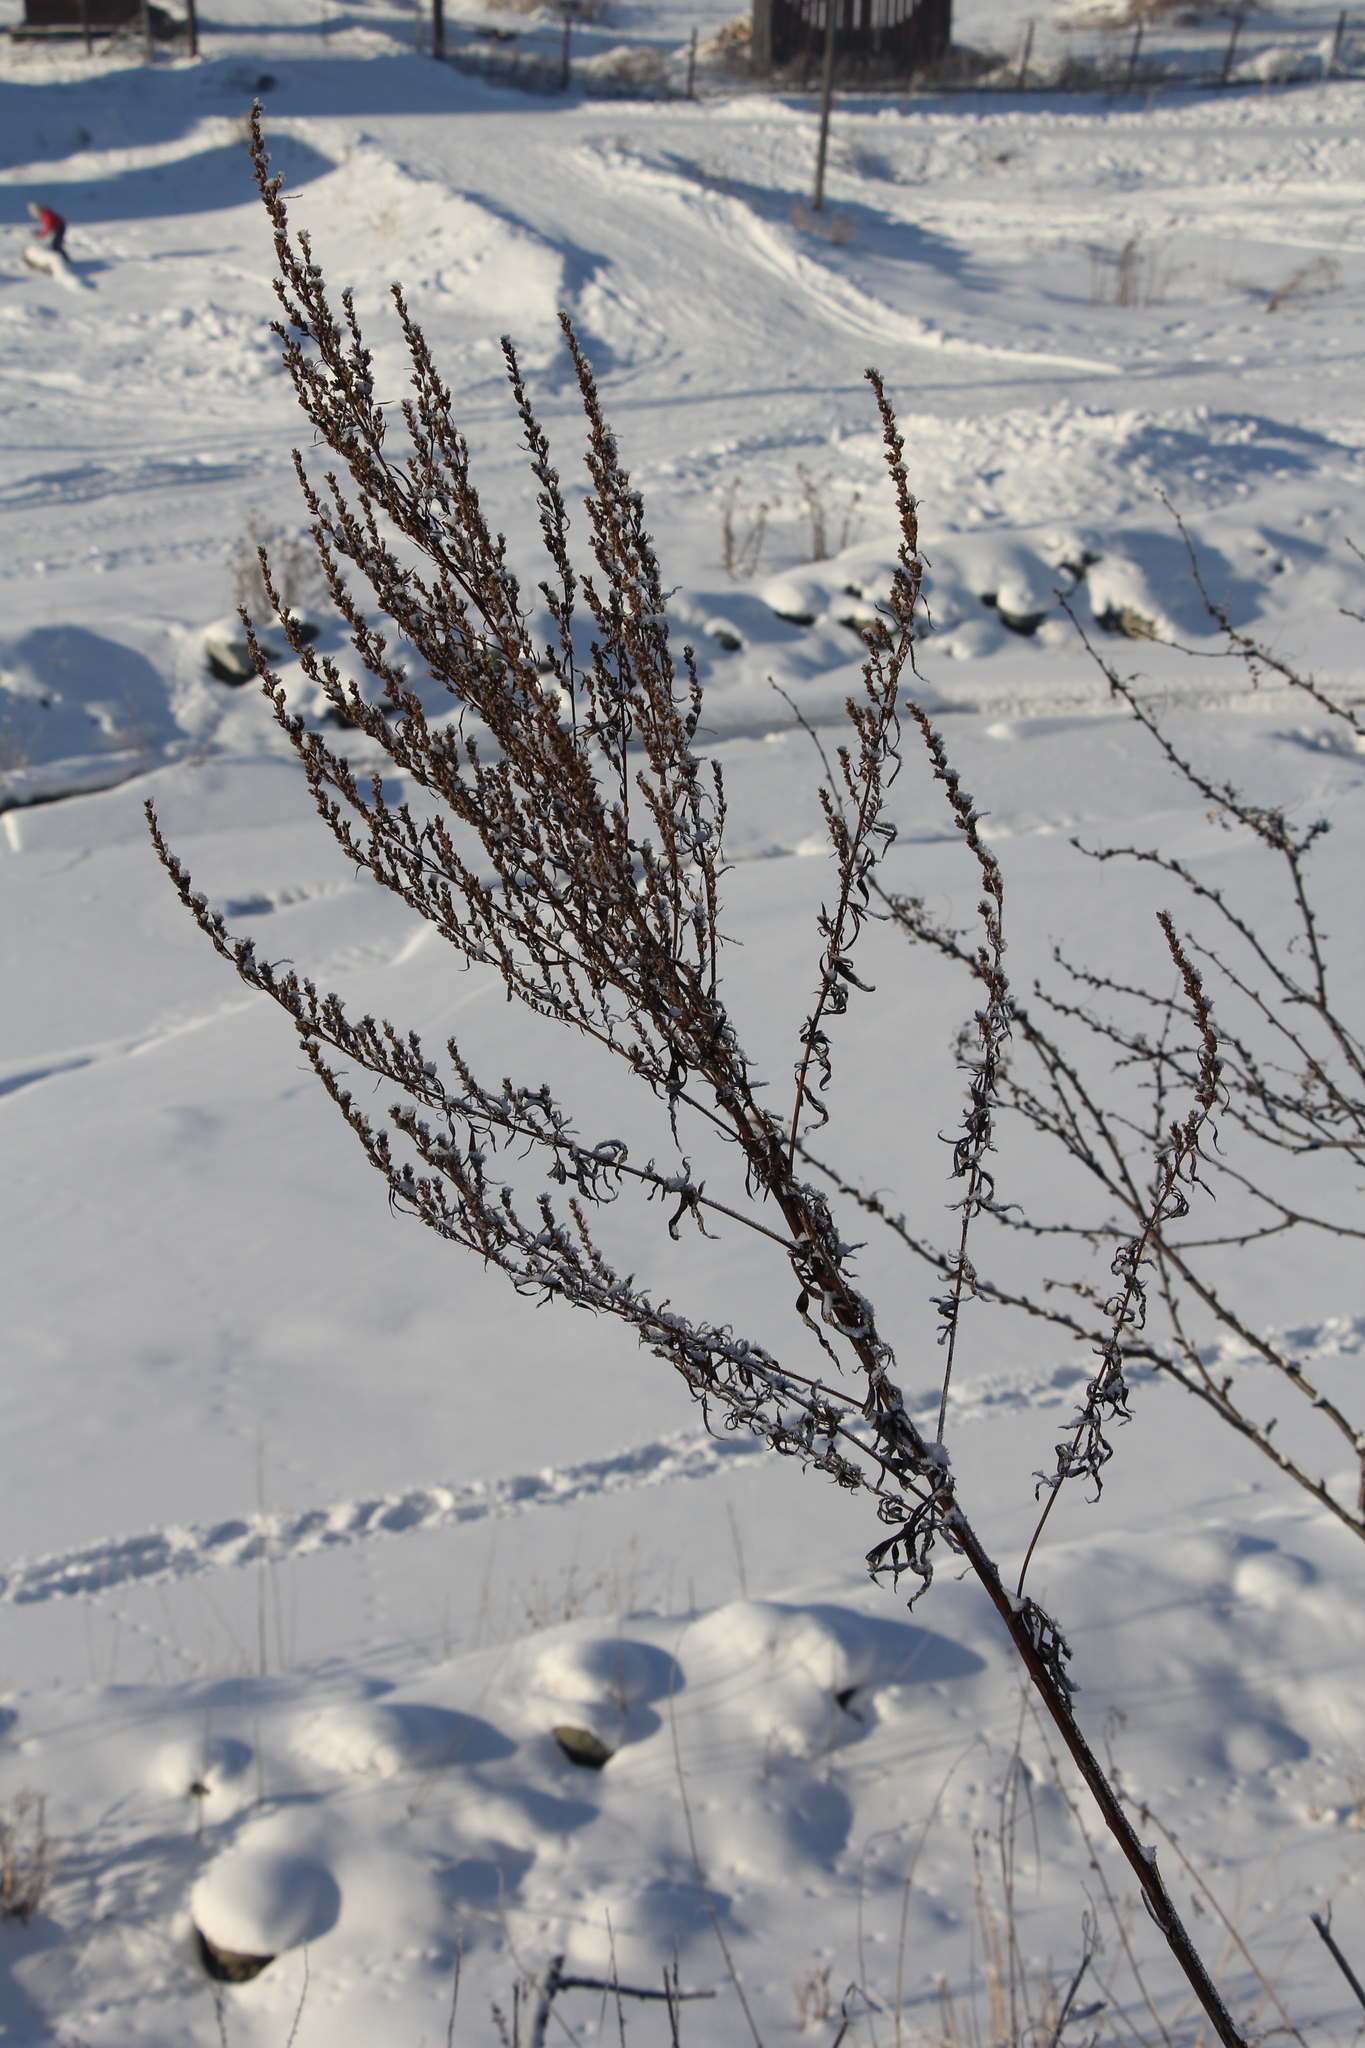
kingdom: Plantae
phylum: Tracheophyta
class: Magnoliopsida
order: Asterales
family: Asteraceae
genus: Artemisia
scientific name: Artemisia vulgaris
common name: Mugwort
